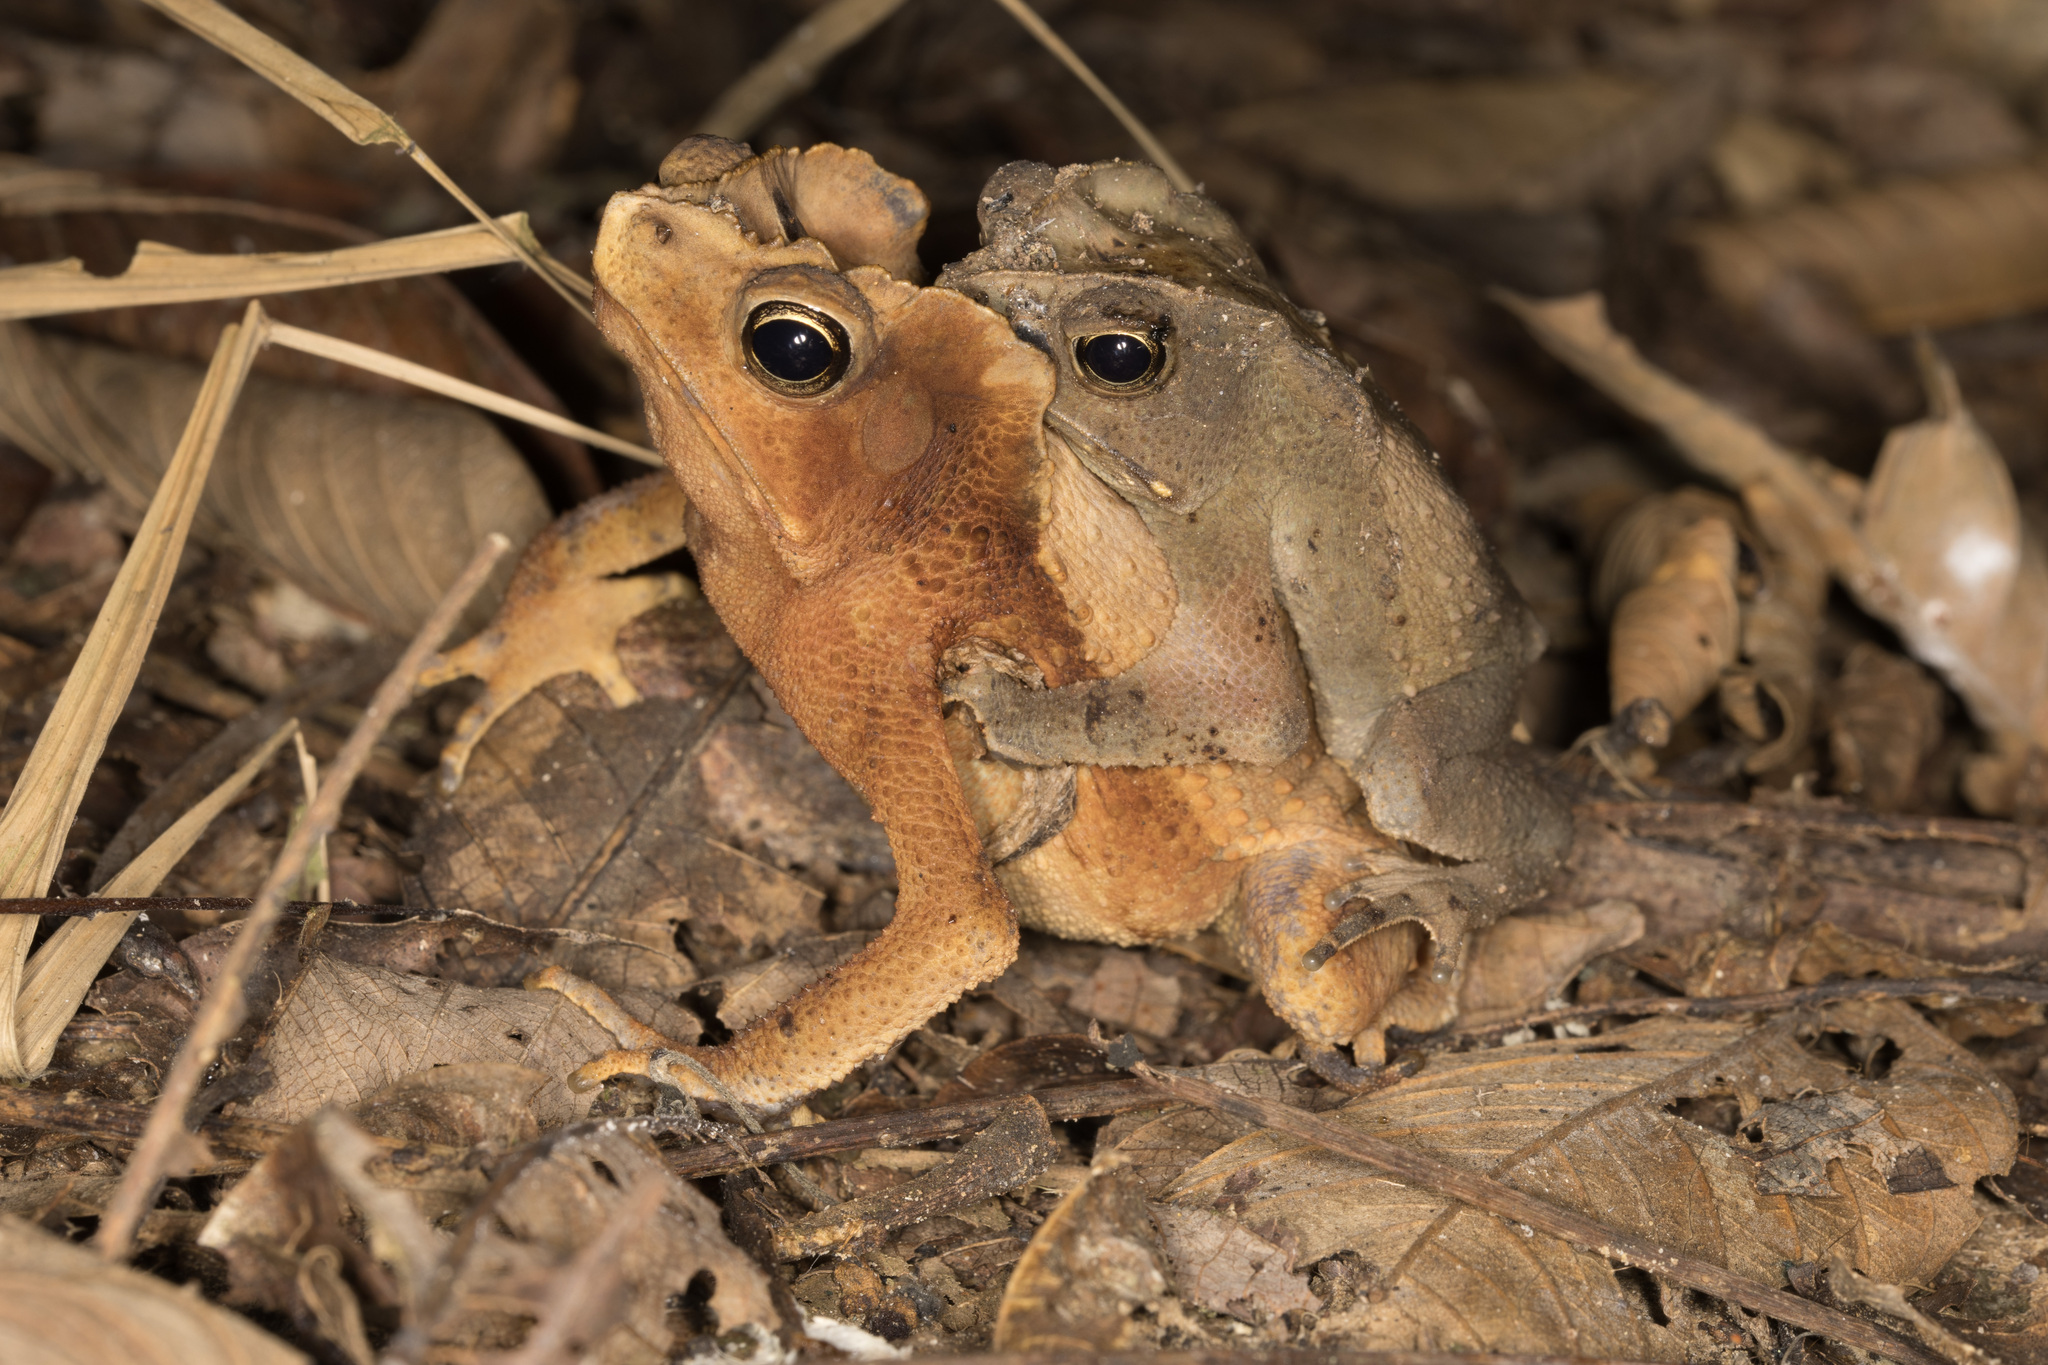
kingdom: Animalia
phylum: Chordata
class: Amphibia
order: Anura
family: Bufonidae
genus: Rhinella
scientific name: Rhinella margaritifera
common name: Mitred toad
